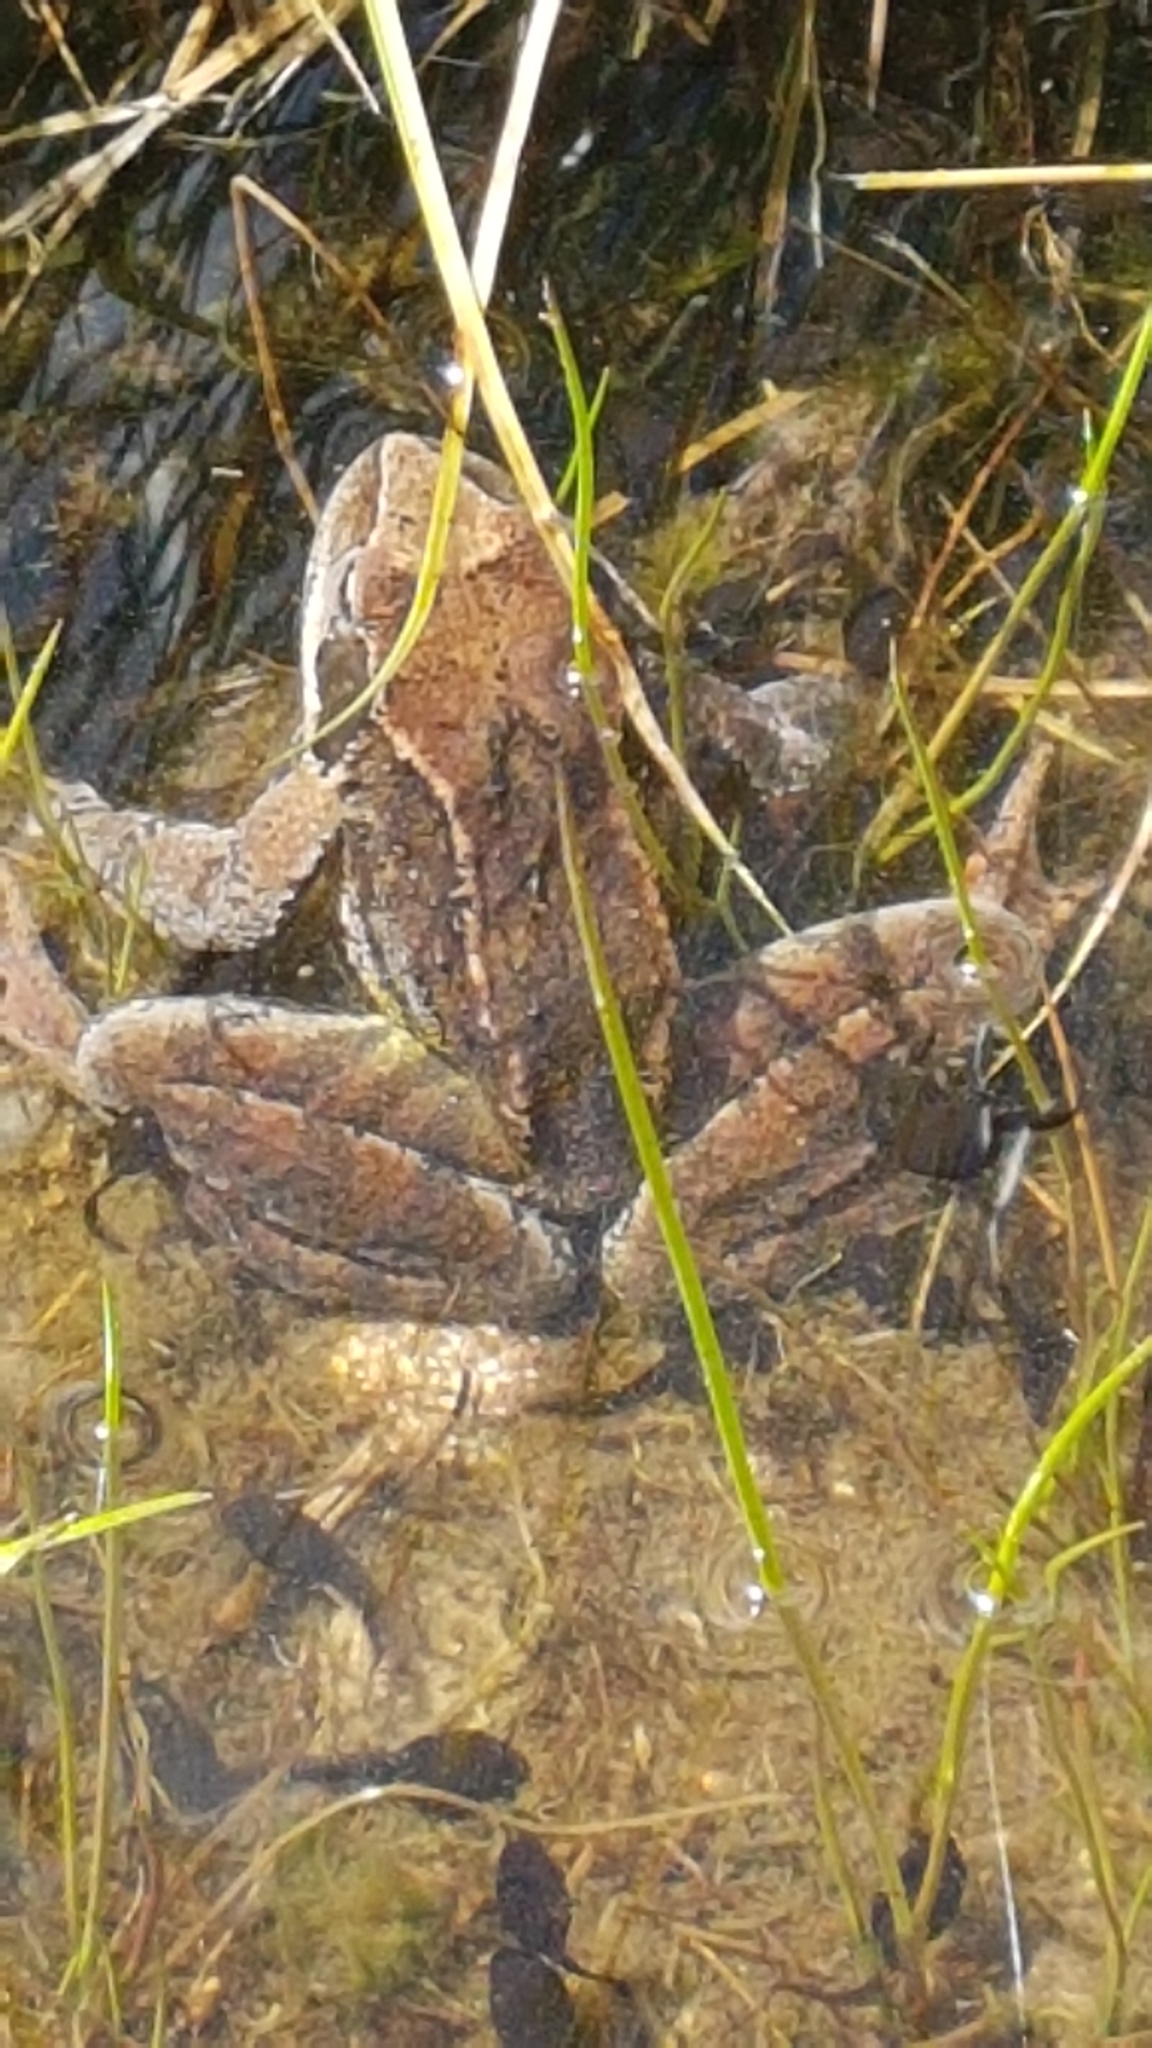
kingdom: Animalia
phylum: Chordata
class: Amphibia
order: Anura
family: Ranidae
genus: Rana
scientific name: Rana temporaria
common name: Common frog
